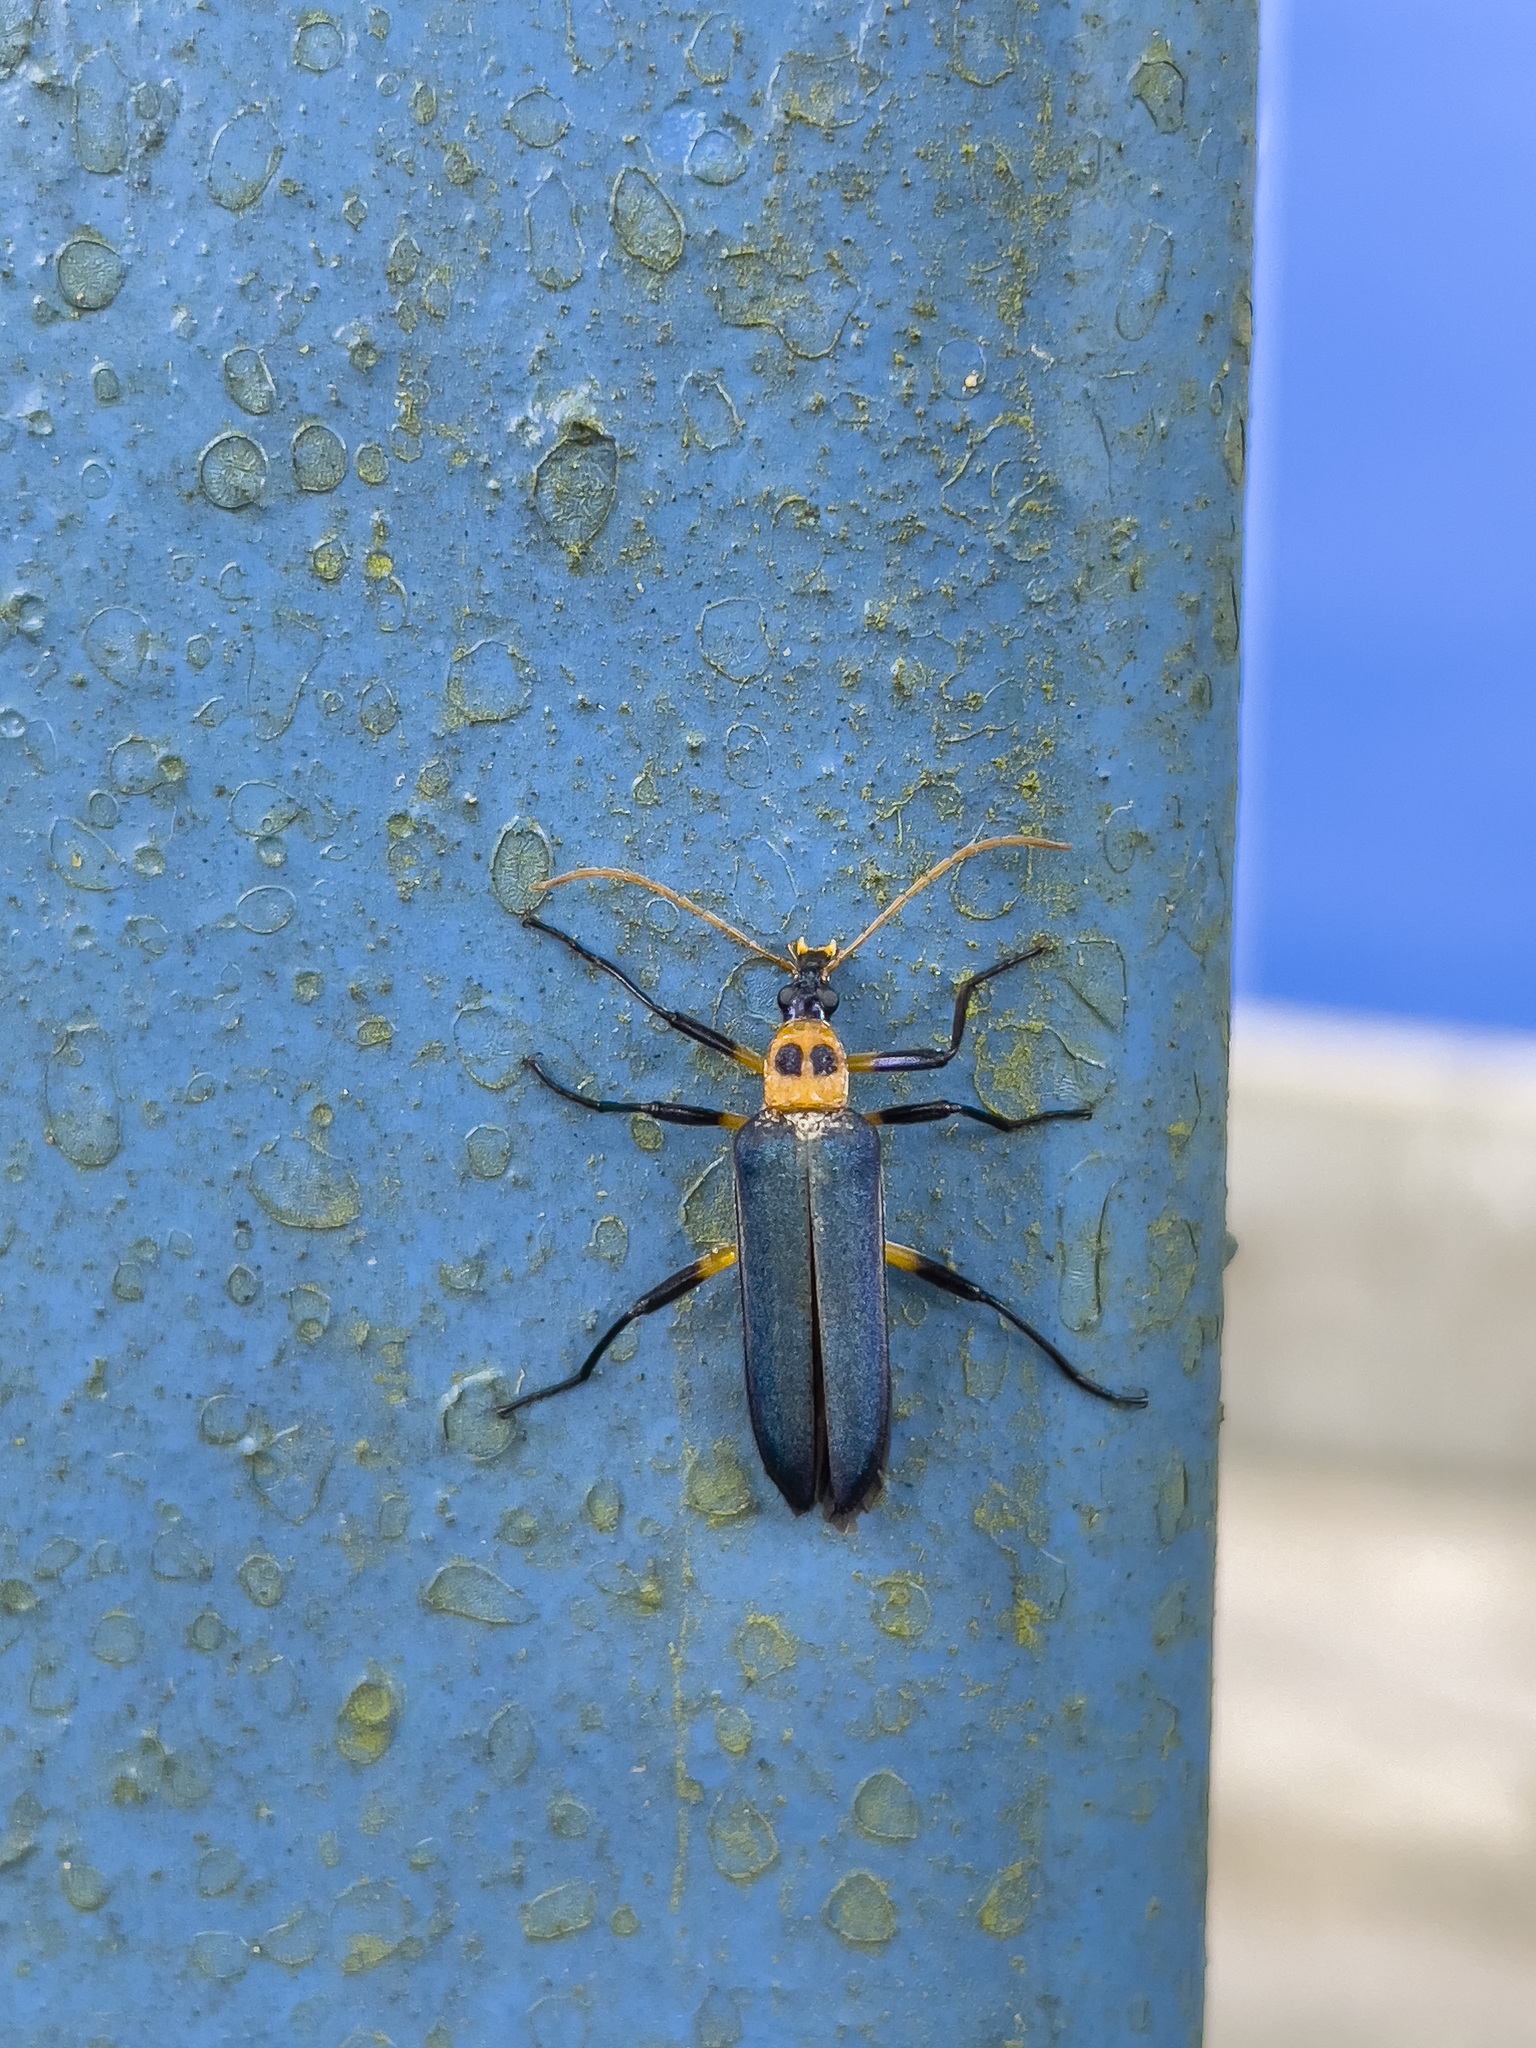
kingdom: Animalia
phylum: Arthropoda
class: Insecta
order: Coleoptera
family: Prionoceridae
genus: Idgia
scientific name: Idgia
